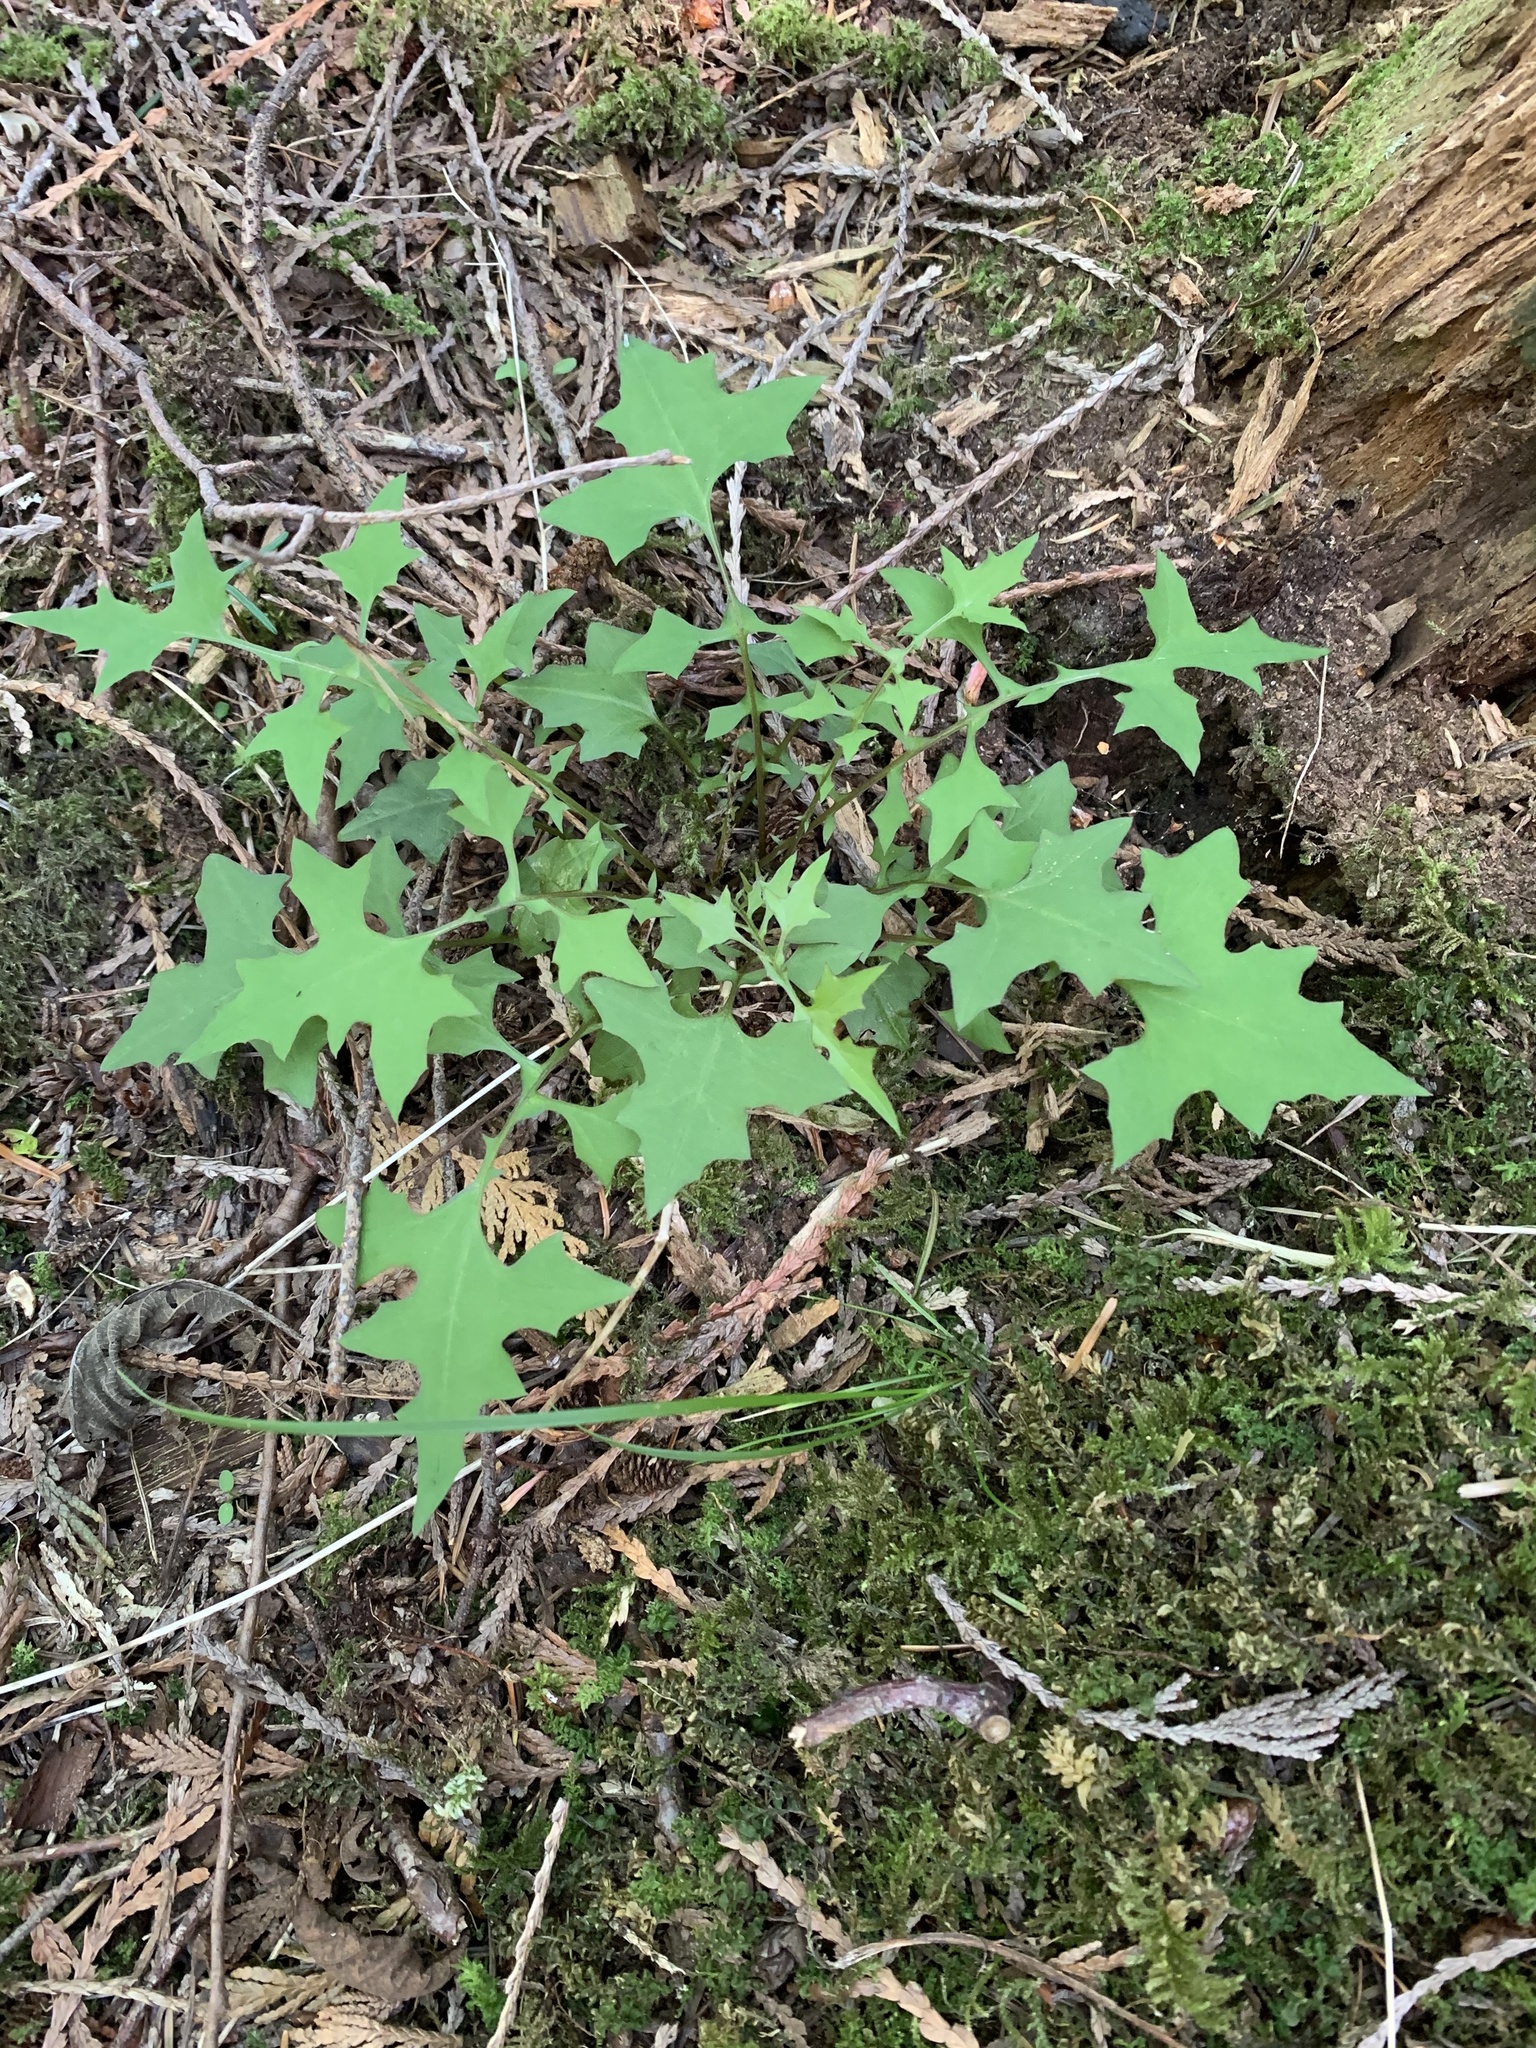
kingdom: Plantae
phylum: Tracheophyta
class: Magnoliopsida
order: Asterales
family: Asteraceae
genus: Mycelis
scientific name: Mycelis muralis
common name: Wall lettuce
